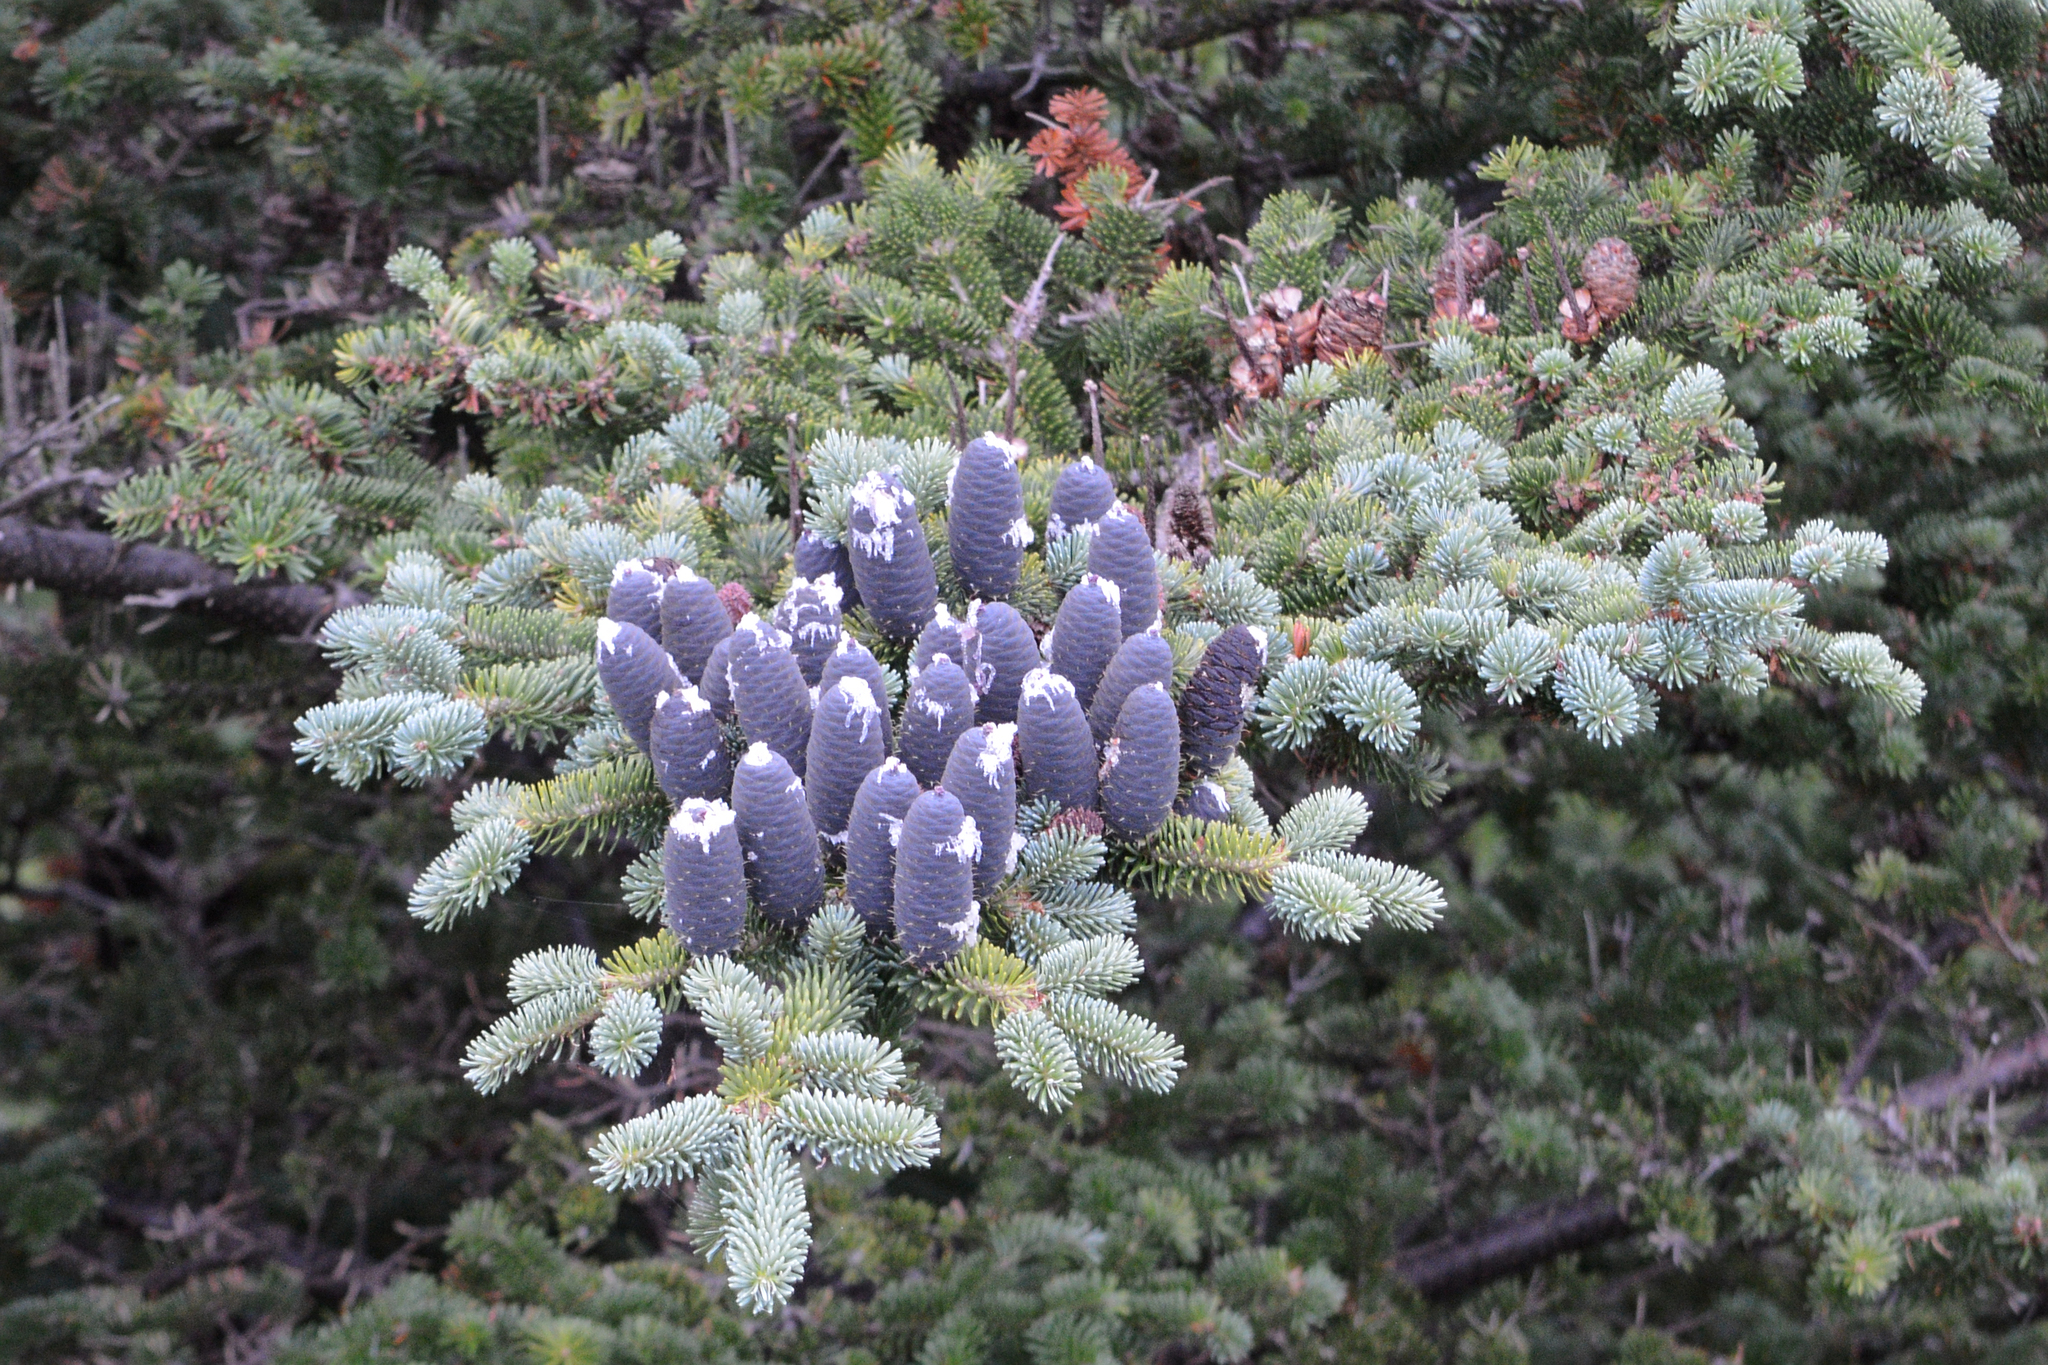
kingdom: Plantae
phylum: Tracheophyta
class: Pinopsida
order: Pinales
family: Pinaceae
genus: Abies
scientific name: Abies balsamea
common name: Balsam fir
